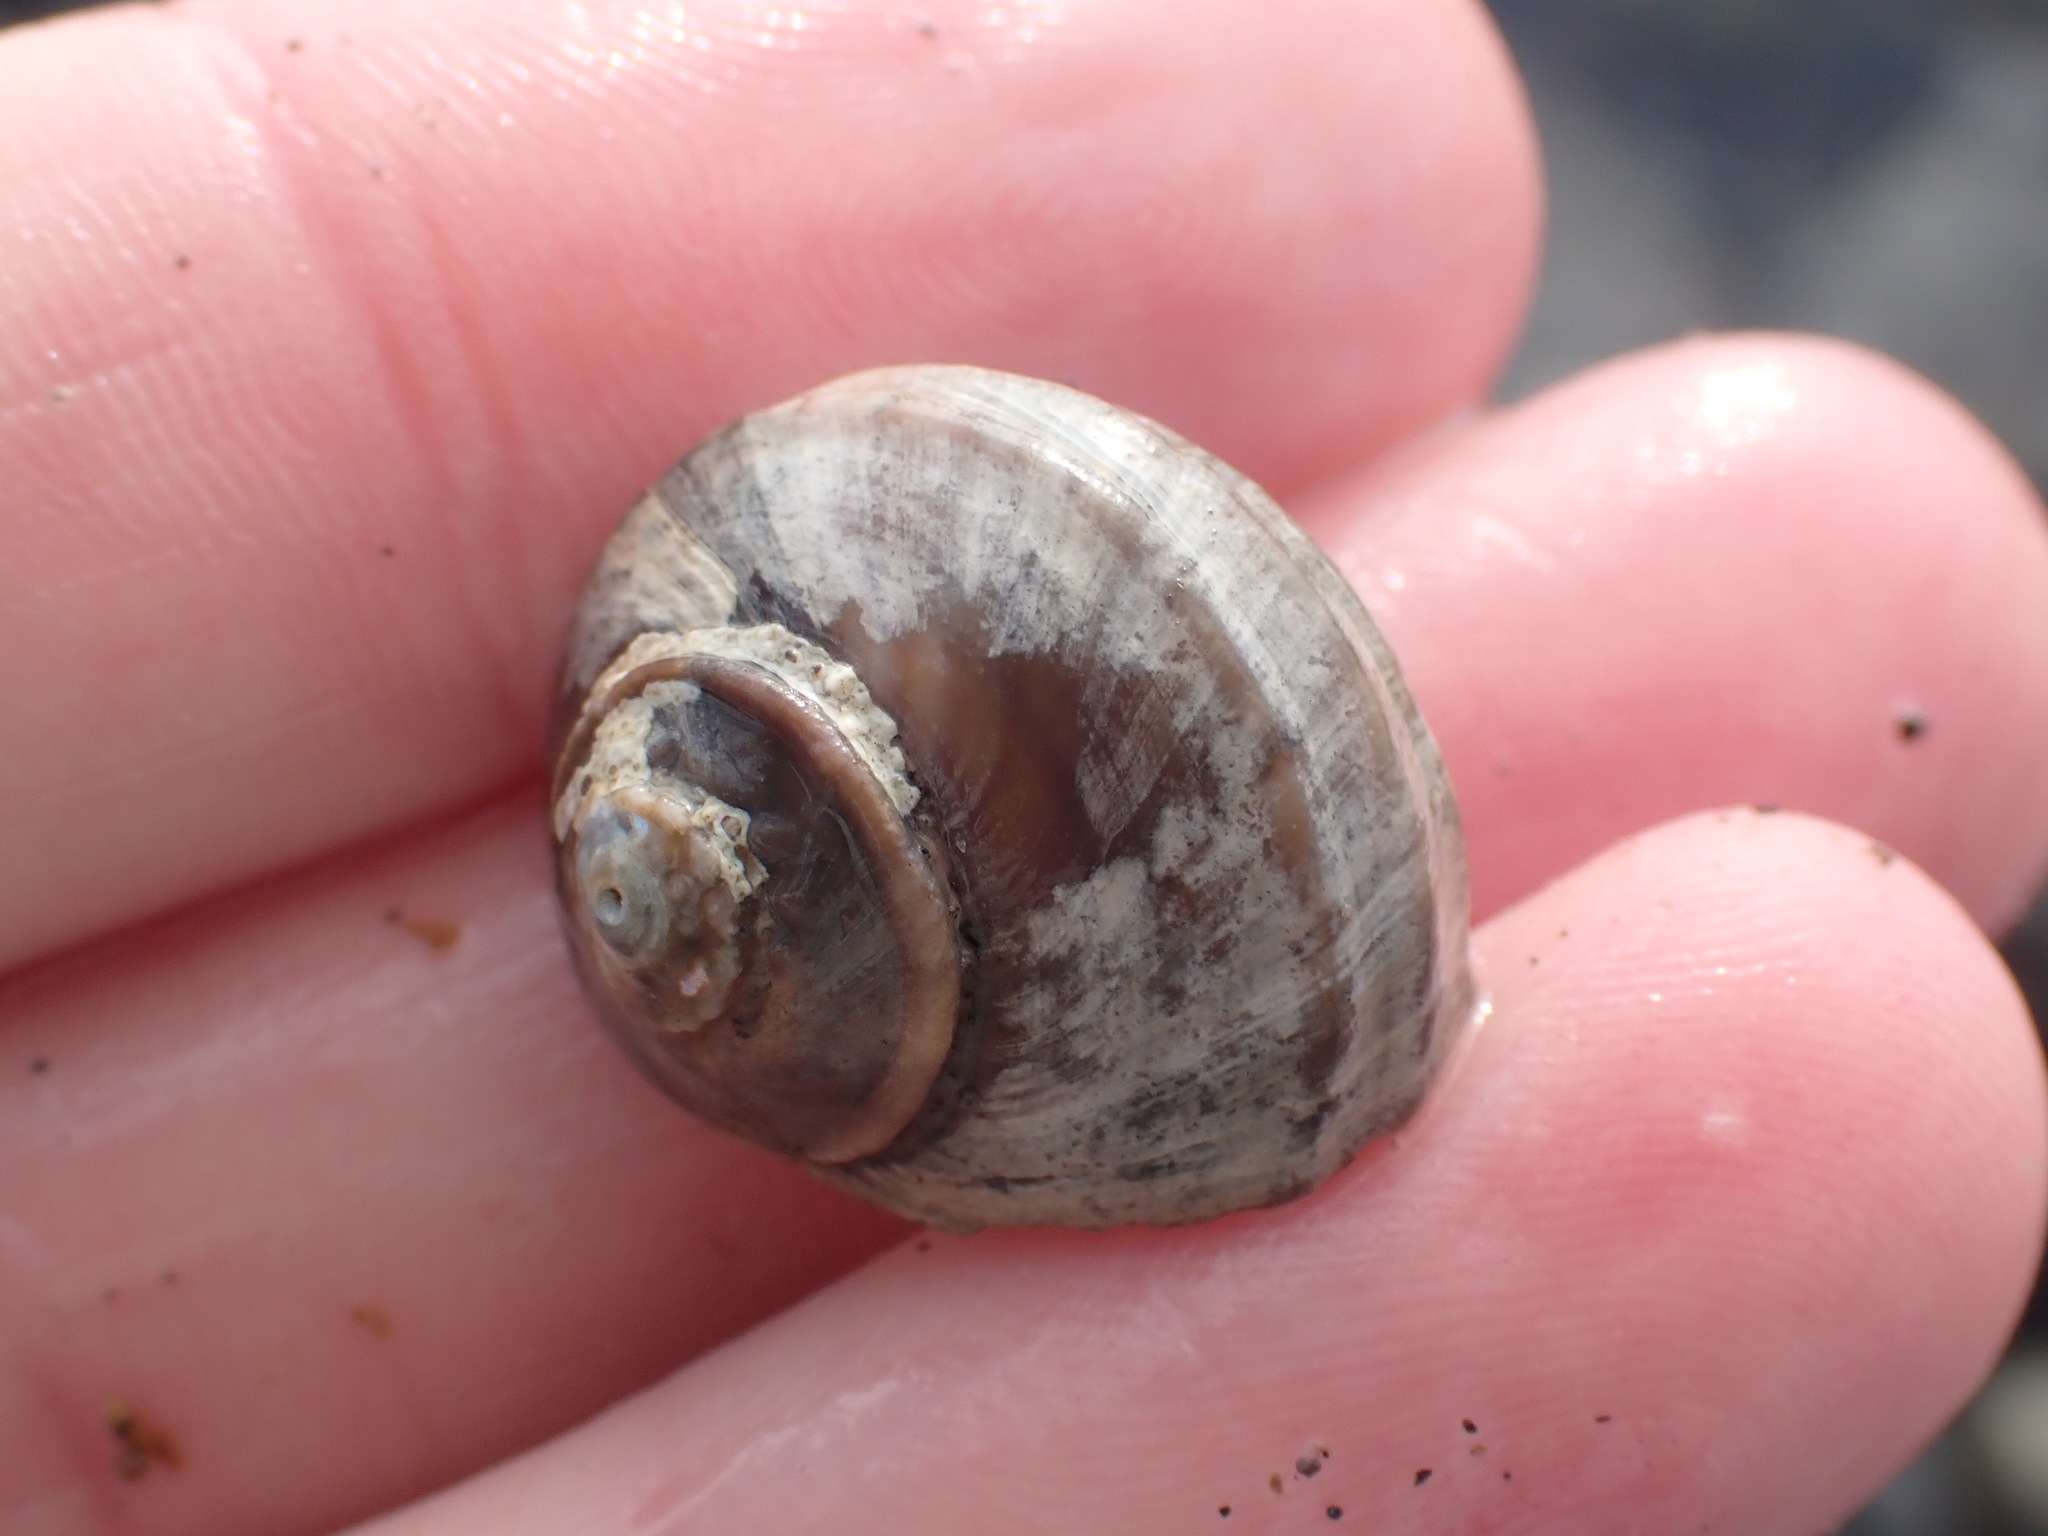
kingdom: Animalia
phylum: Mollusca
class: Gastropoda
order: Trochida
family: Turbinidae
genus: Lunella
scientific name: Lunella smaragda
